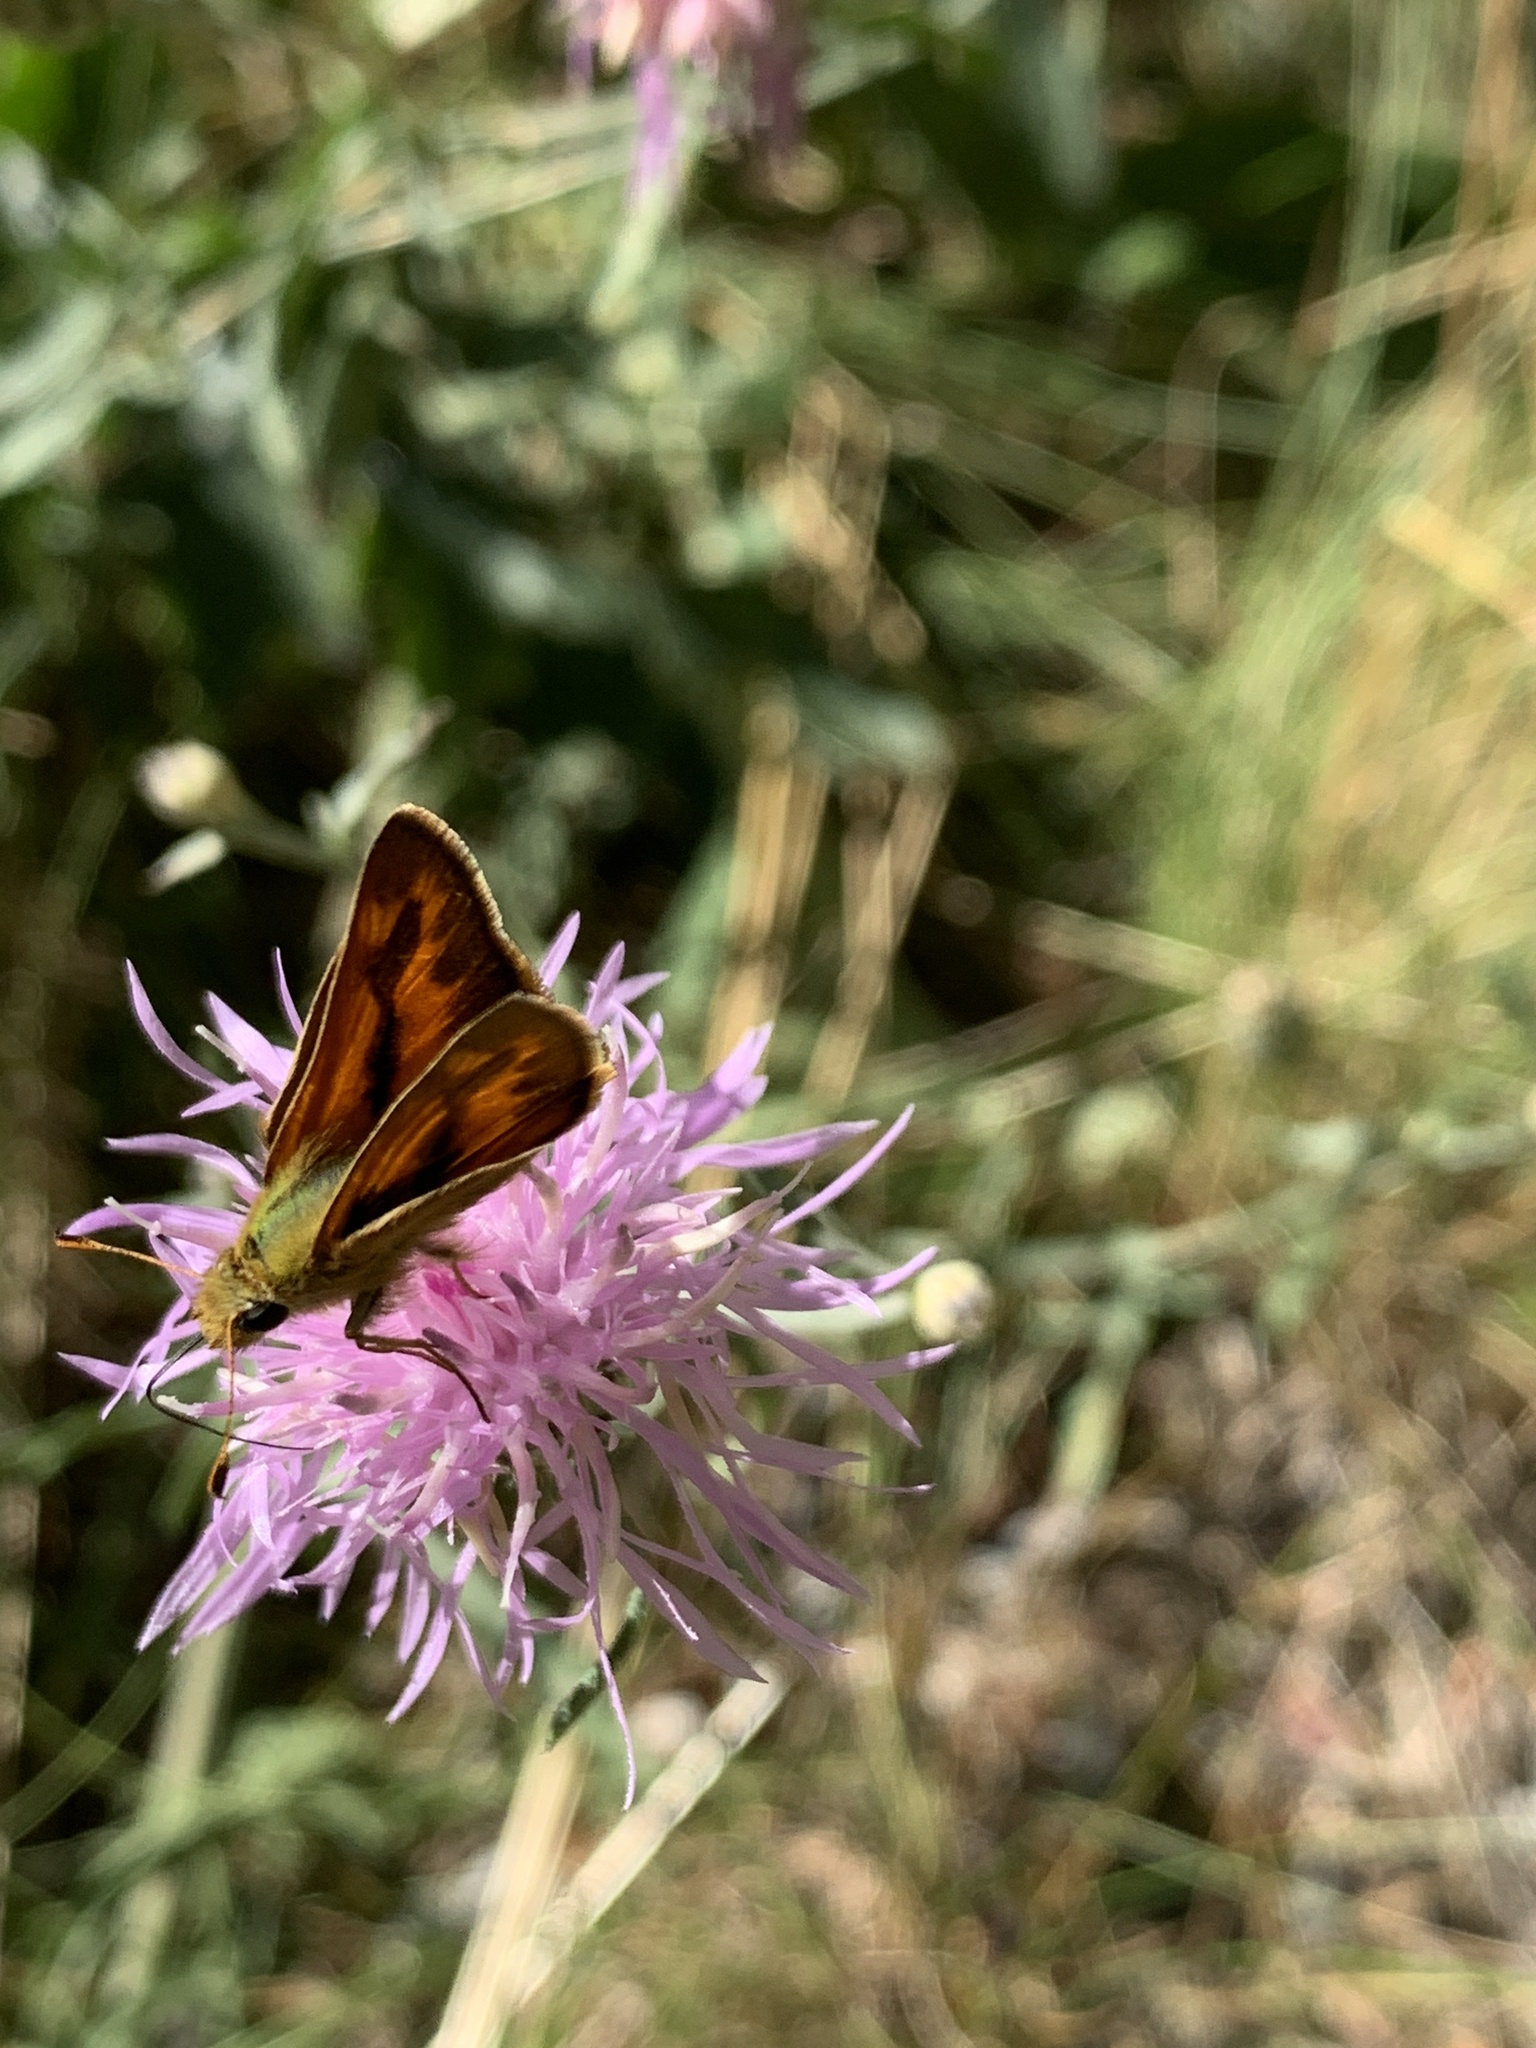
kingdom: Animalia
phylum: Arthropoda
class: Insecta
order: Lepidoptera
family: Hesperiidae
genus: Ochlodes
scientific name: Ochlodes sylvanoides
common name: Woodland skipper
